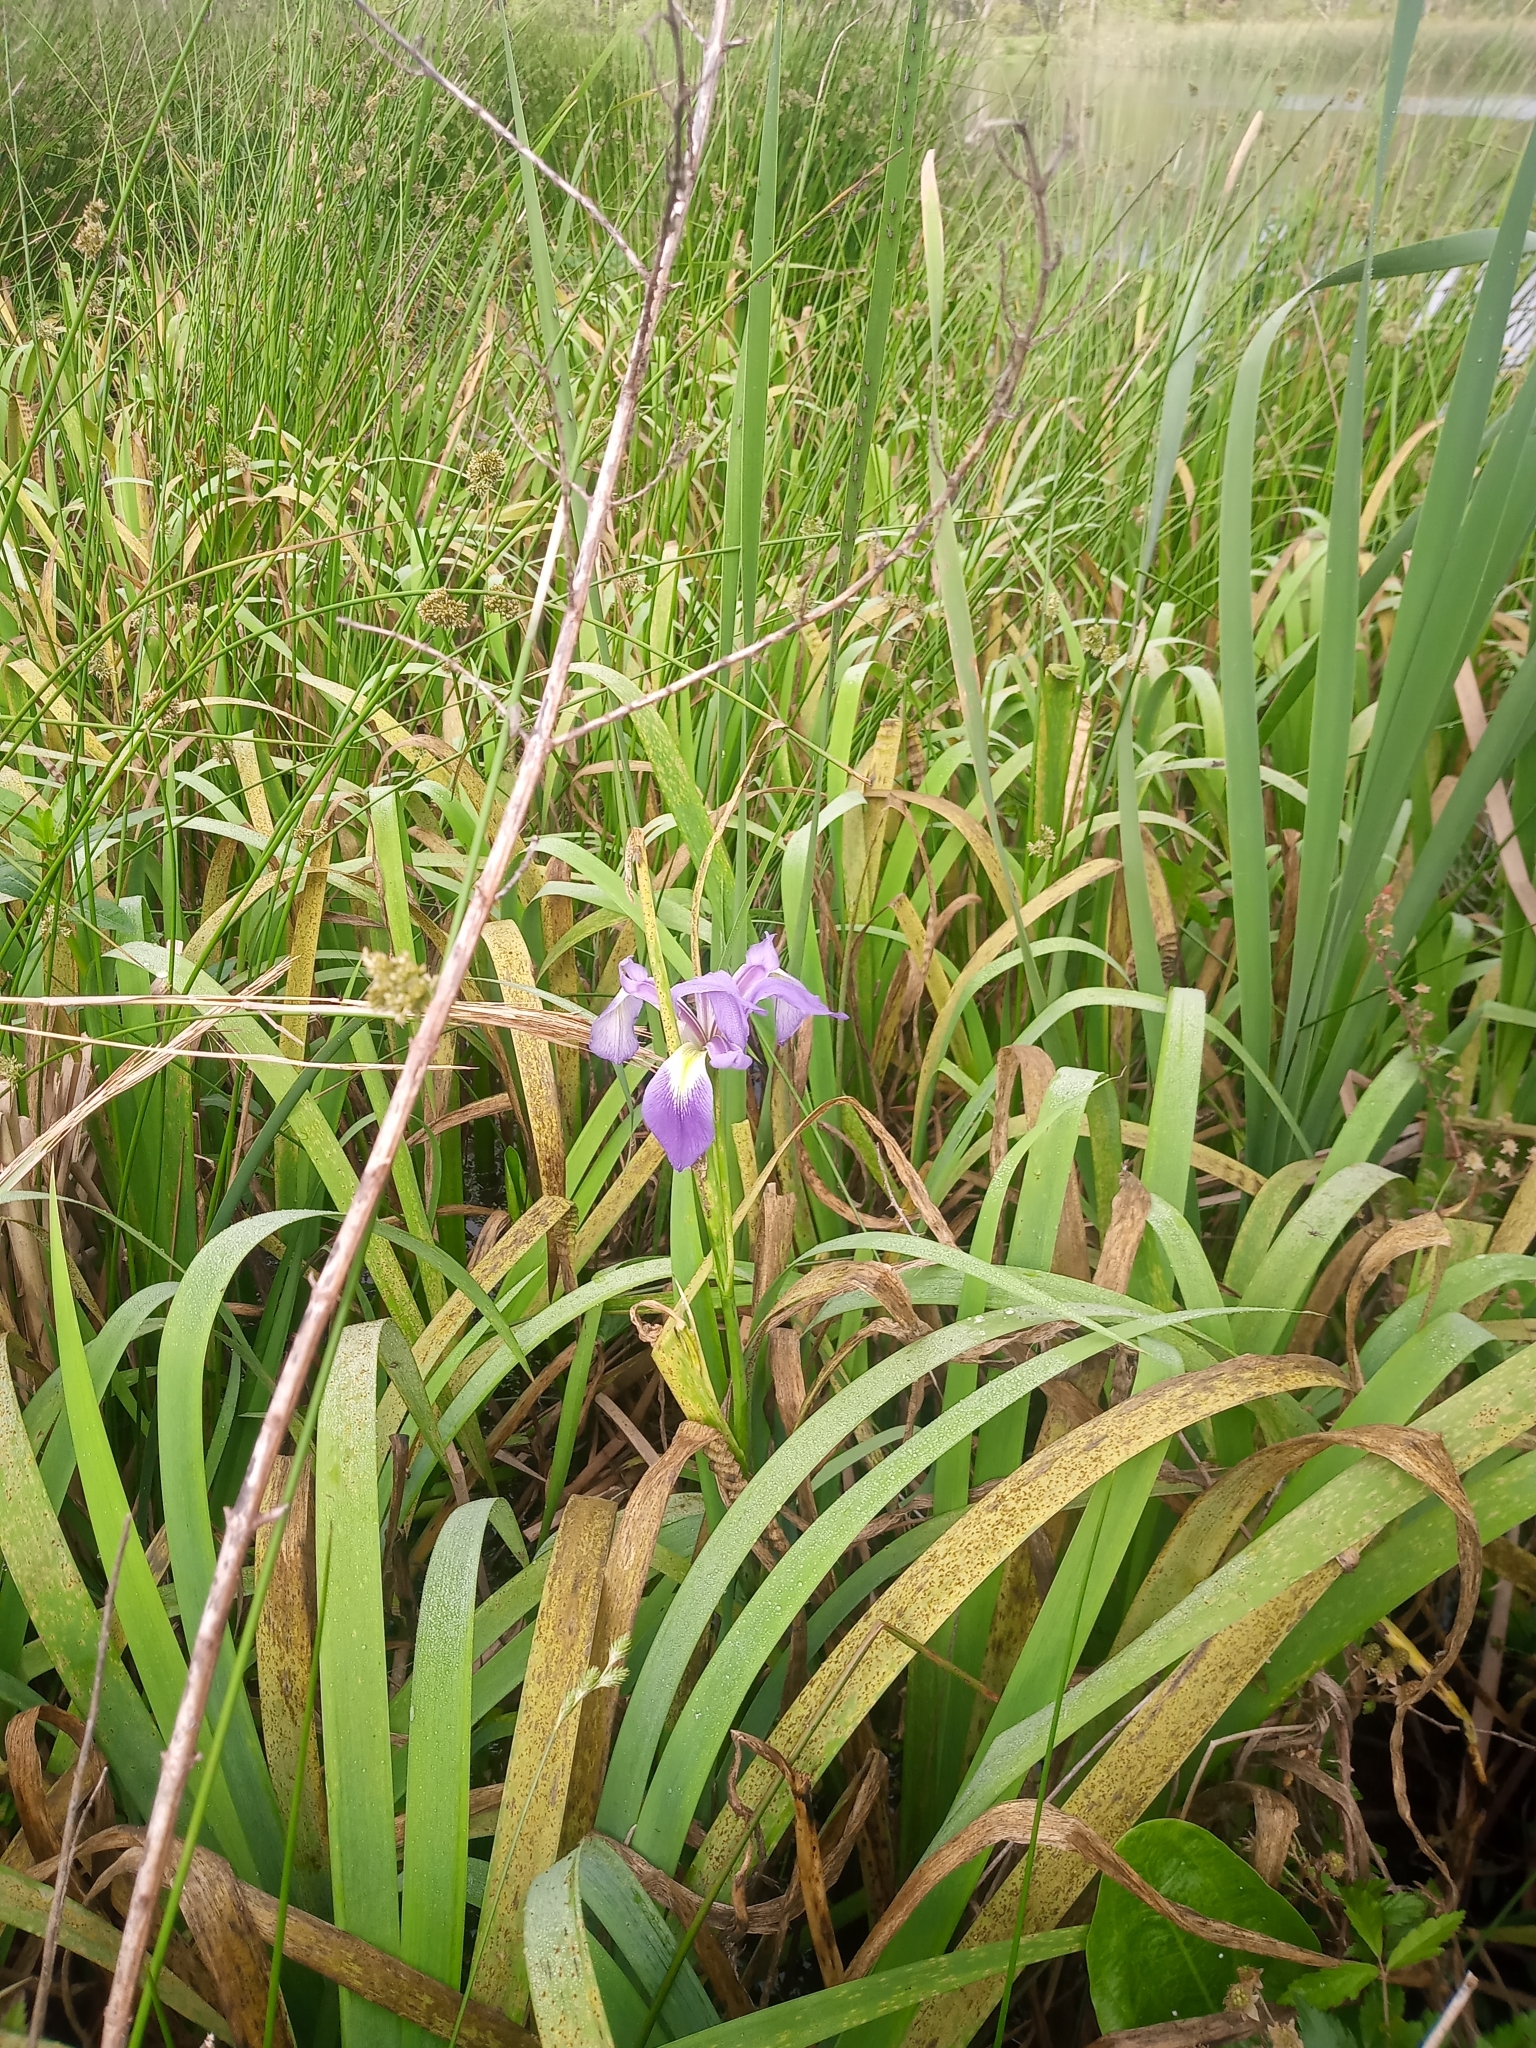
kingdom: Plantae
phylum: Tracheophyta
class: Liliopsida
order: Asparagales
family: Iridaceae
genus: Iris
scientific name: Iris virginica
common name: Southern blue flag
